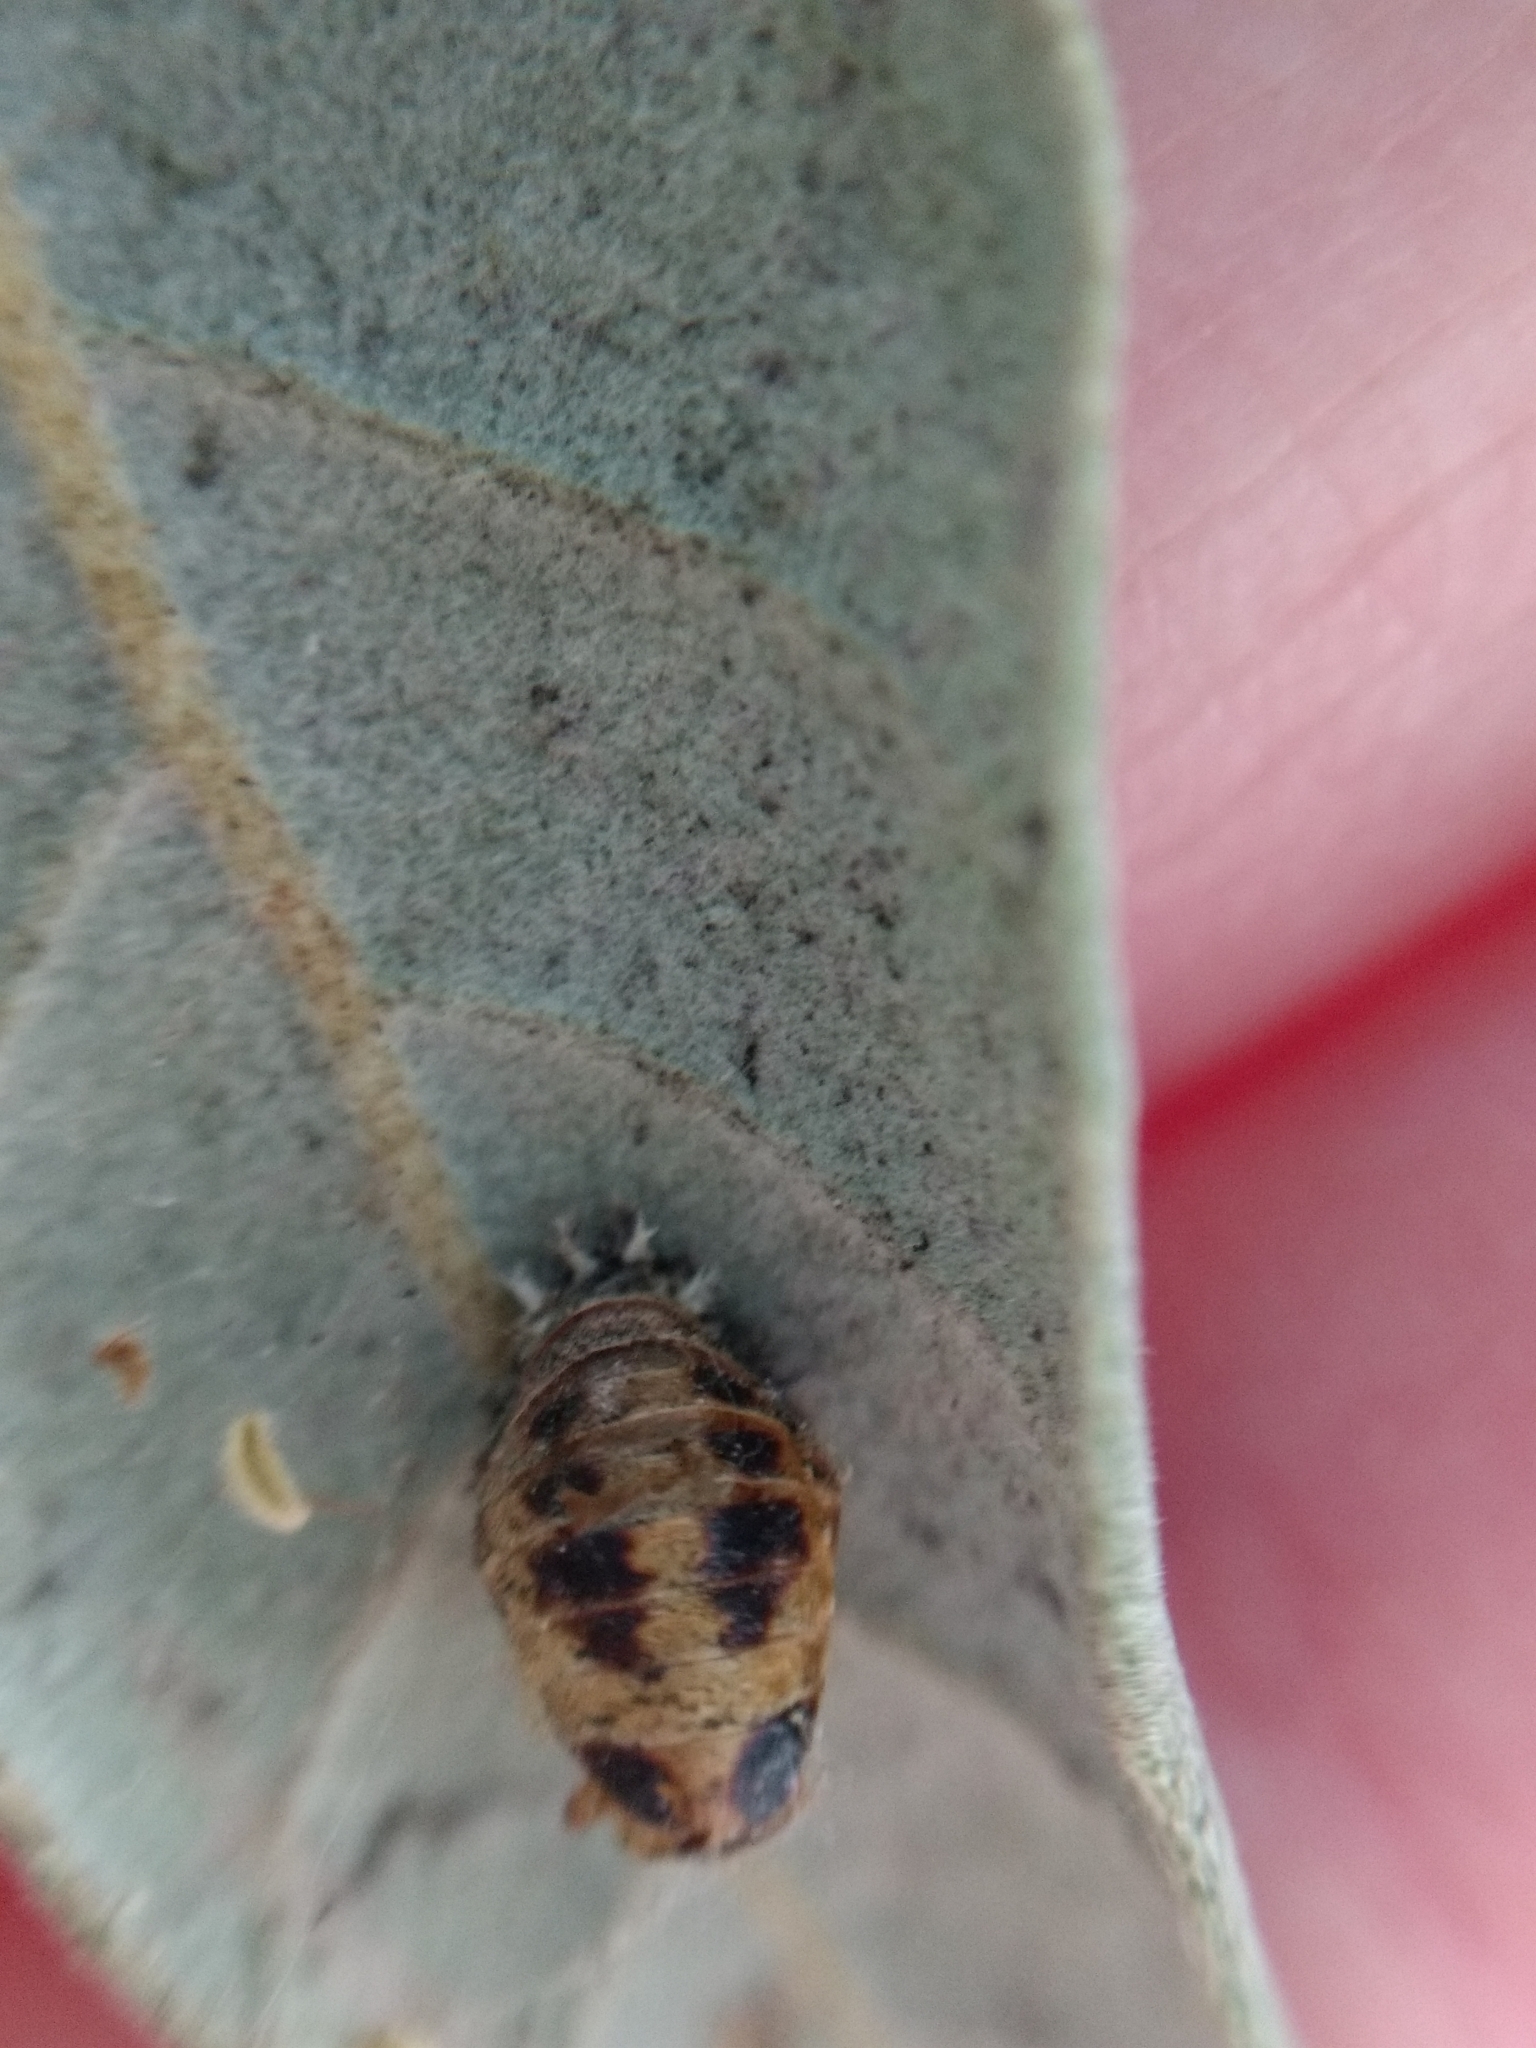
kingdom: Animalia
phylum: Arthropoda
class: Insecta
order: Coleoptera
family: Coccinellidae
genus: Harmonia
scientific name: Harmonia axyridis
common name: Harlequin ladybird
